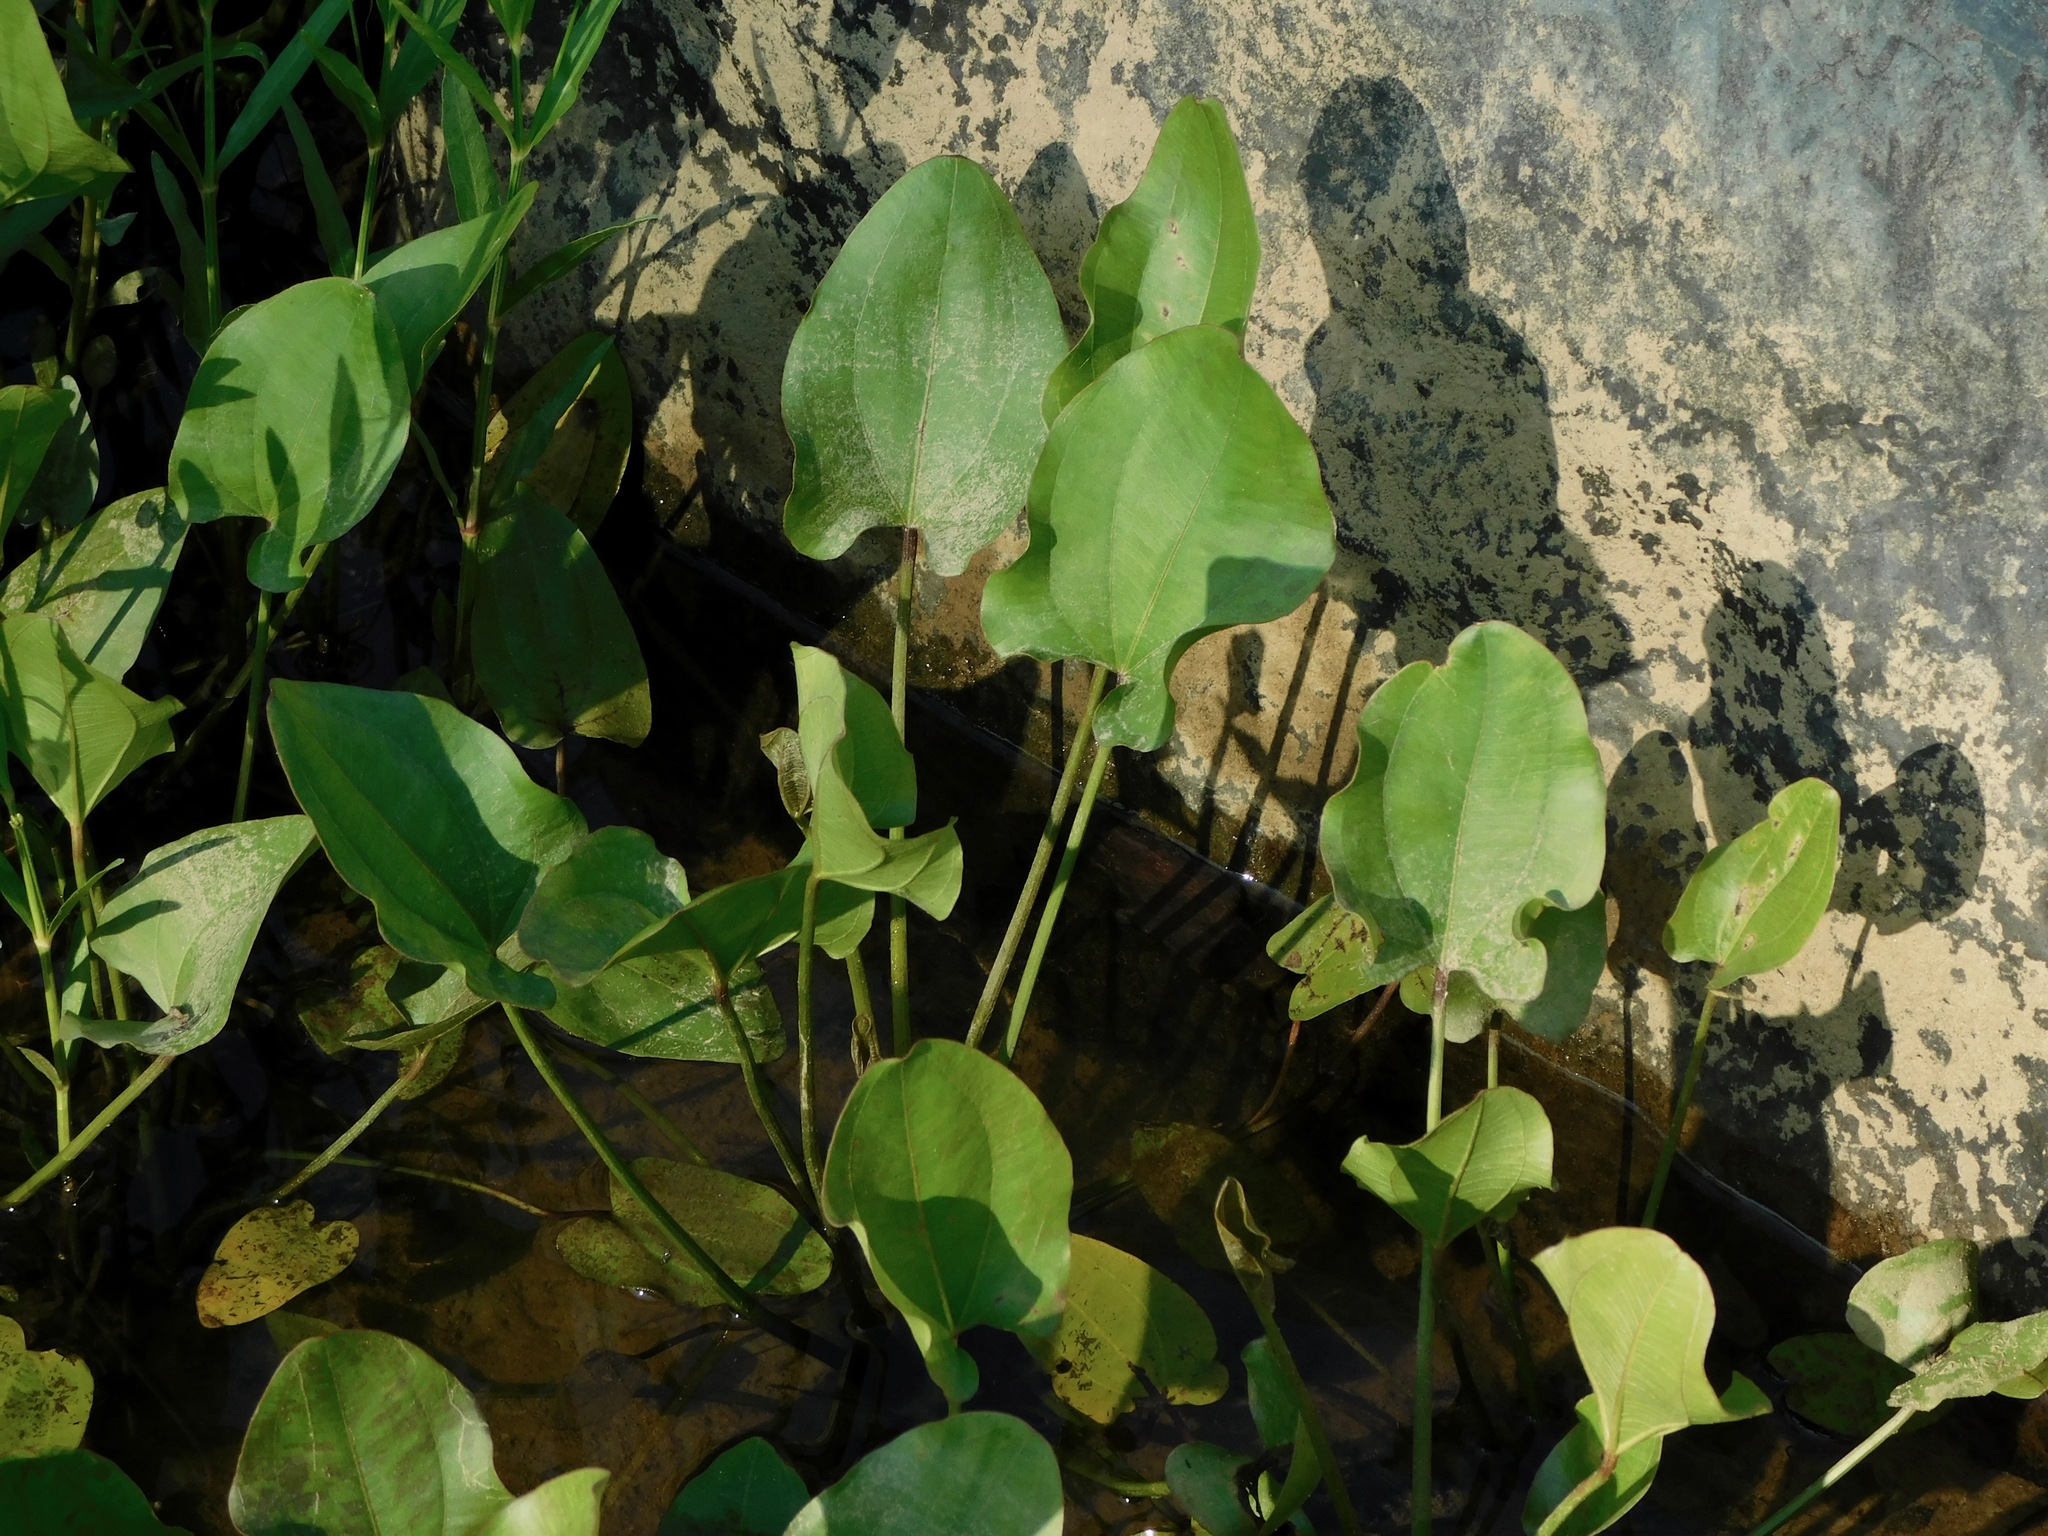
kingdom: Plantae
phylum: Tracheophyta
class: Liliopsida
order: Alismatales
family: Alismataceae
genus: Aquarius
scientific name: Aquarius cordifolius
